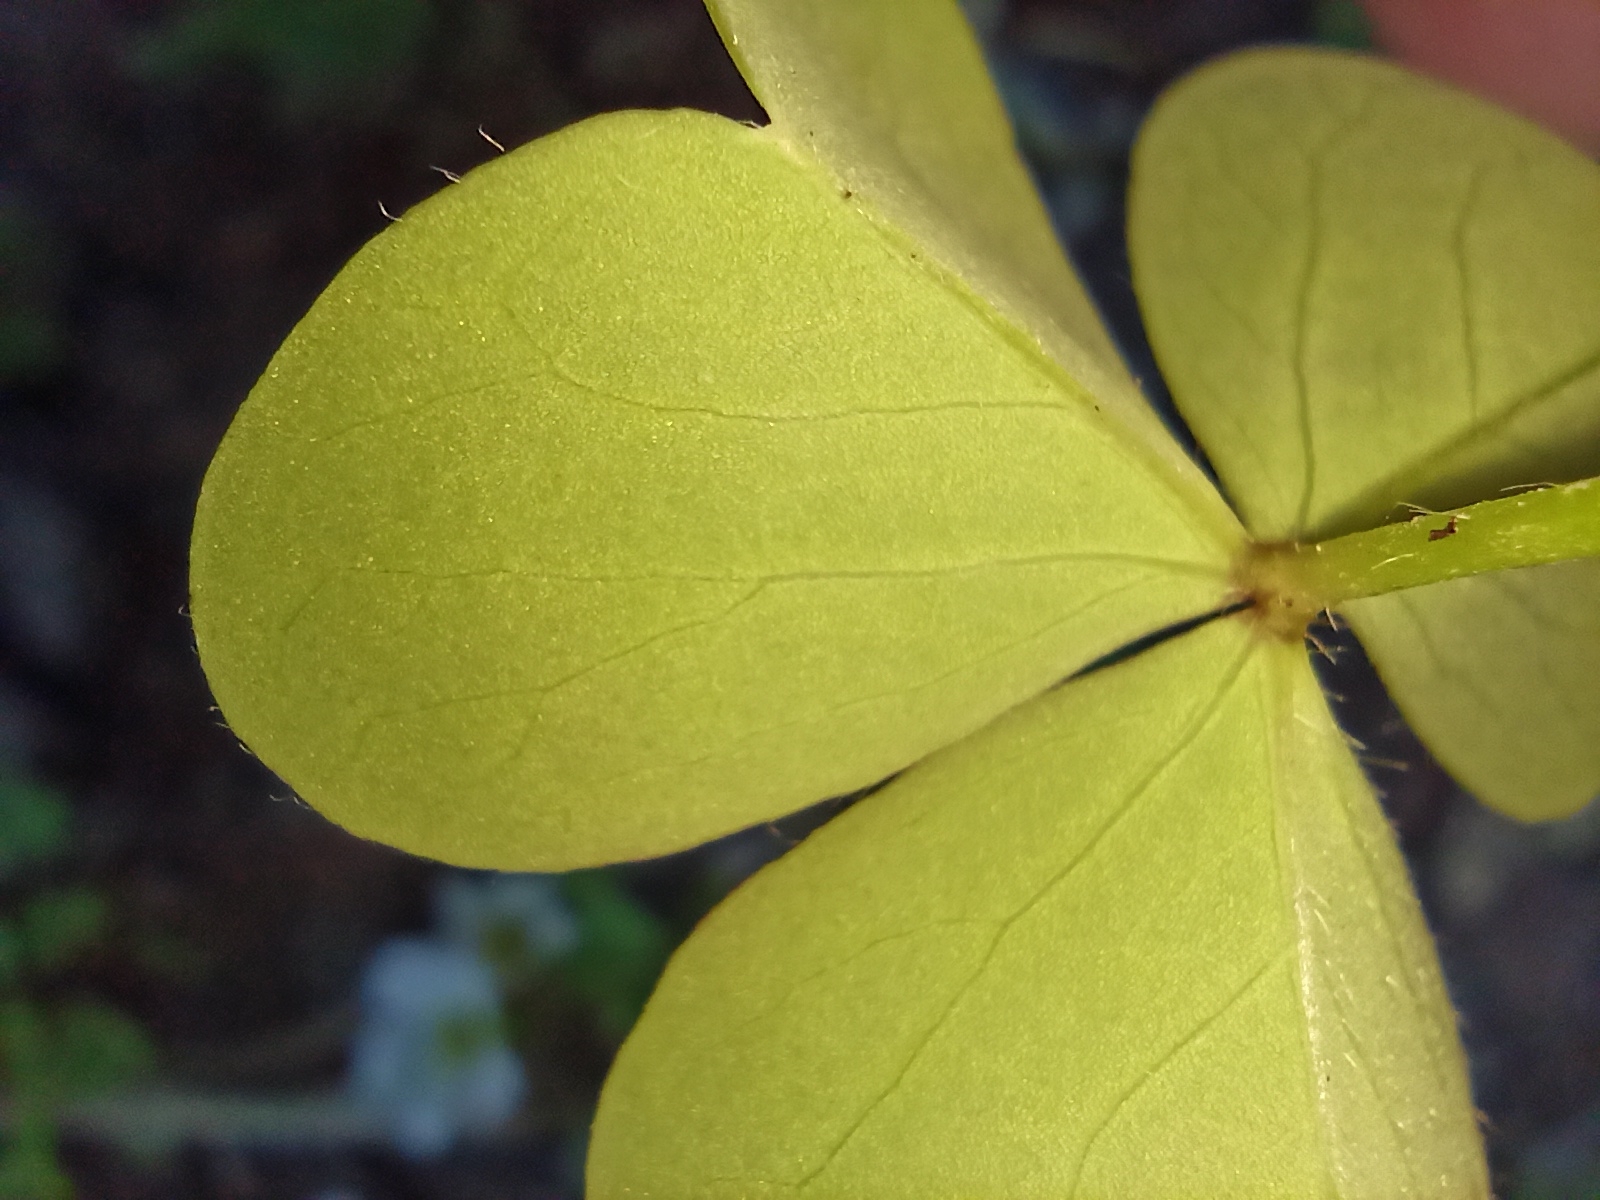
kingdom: Plantae
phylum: Tracheophyta
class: Magnoliopsida
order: Oxalidales
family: Oxalidaceae
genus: Oxalis
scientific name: Oxalis latifolia
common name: Garden pink-sorrel
